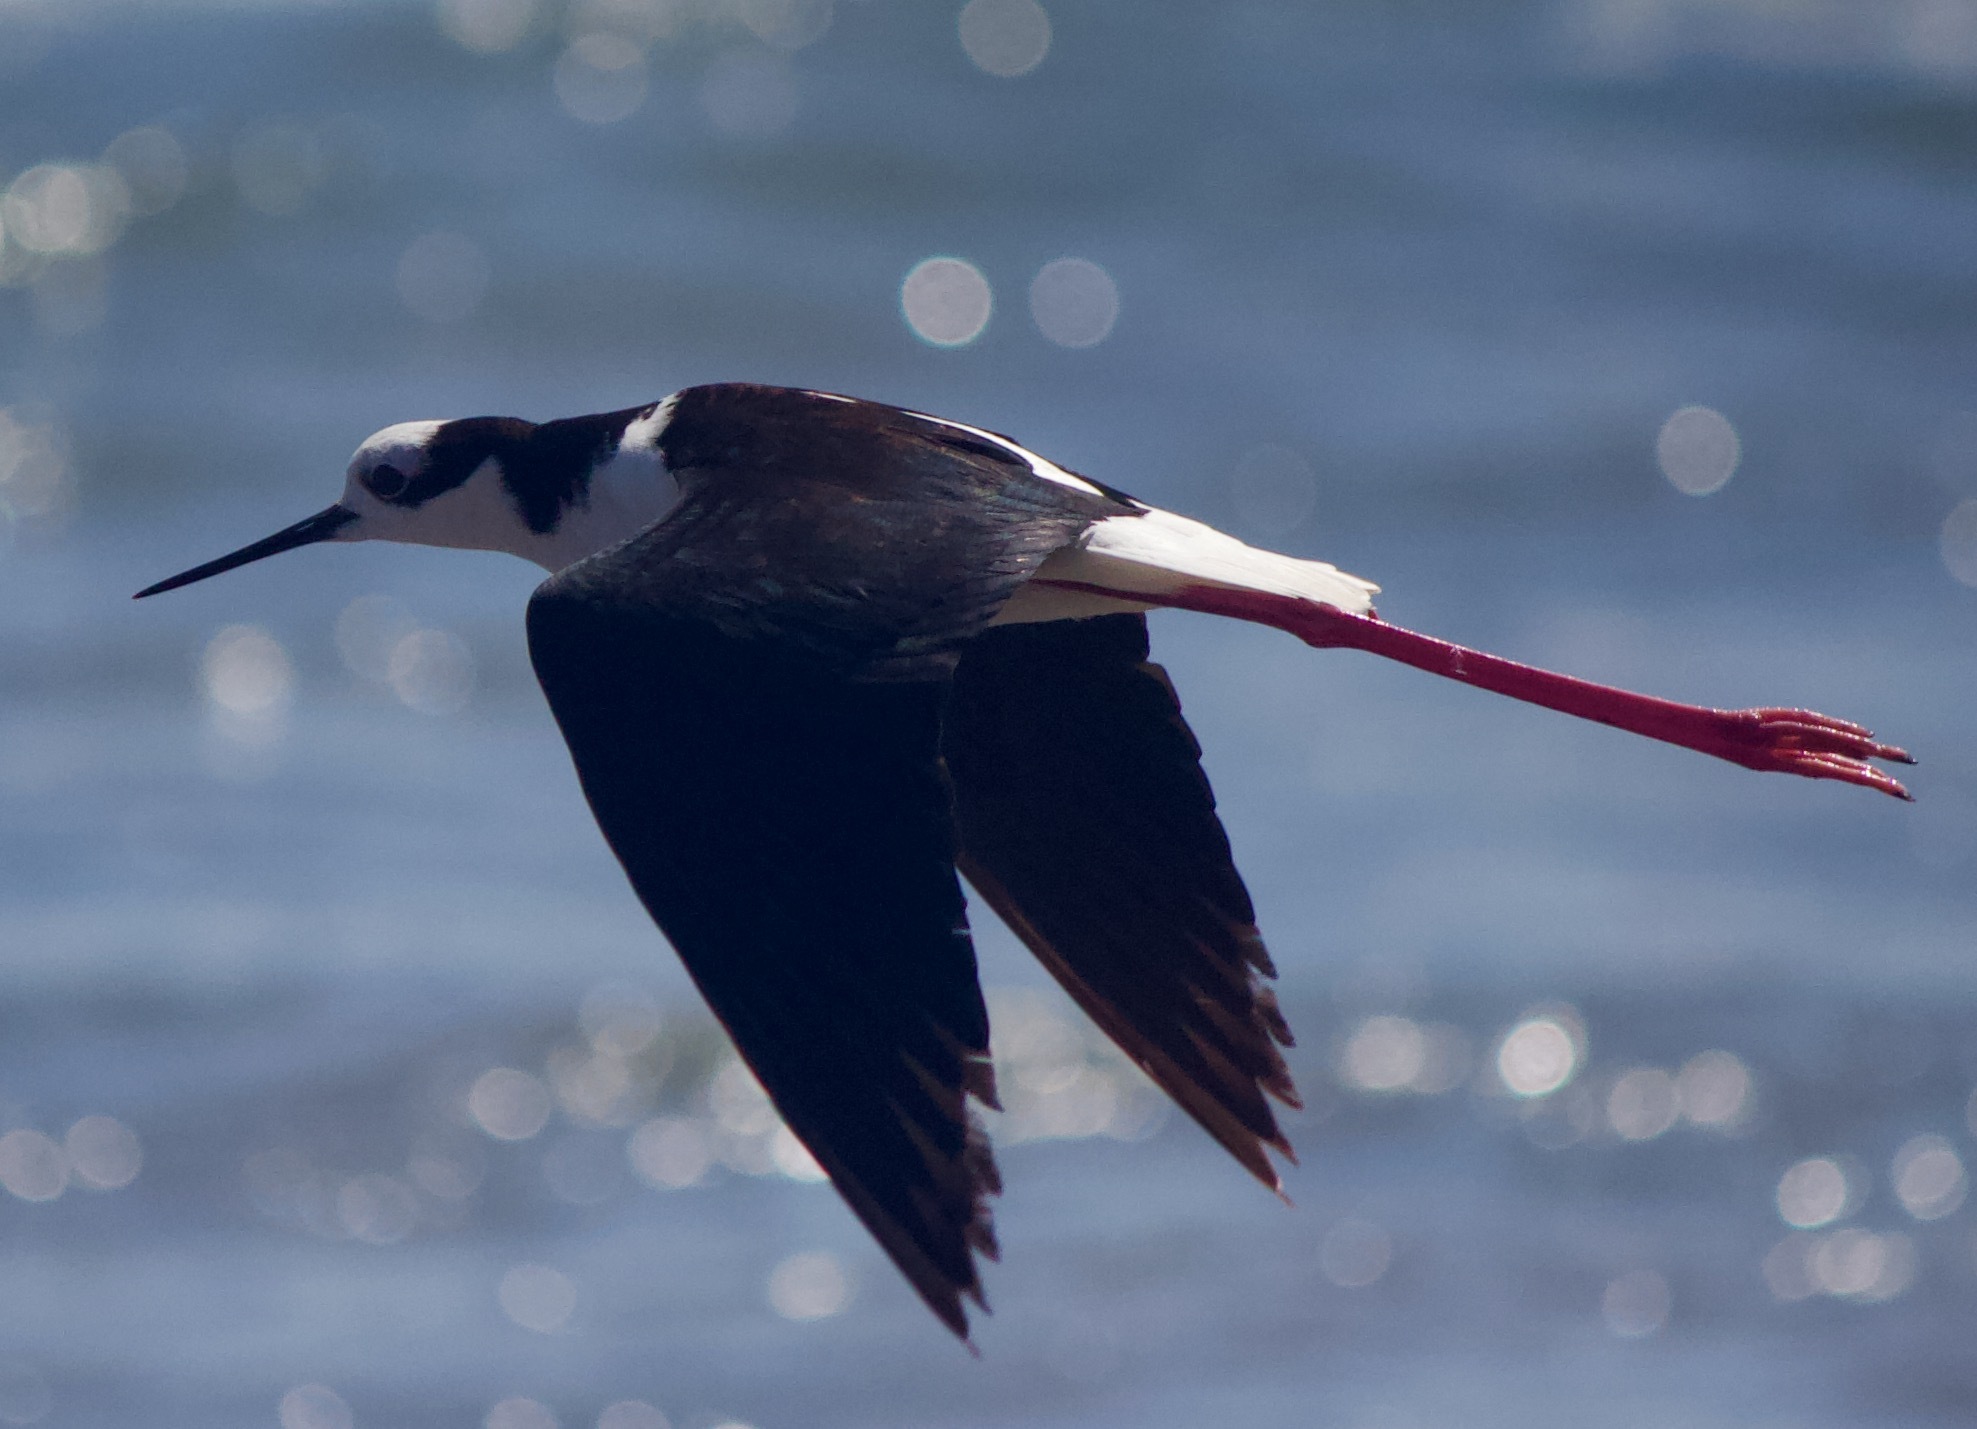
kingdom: Animalia
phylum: Chordata
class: Aves
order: Charadriiformes
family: Recurvirostridae
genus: Himantopus
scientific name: Himantopus mexicanus
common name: Black-necked stilt
